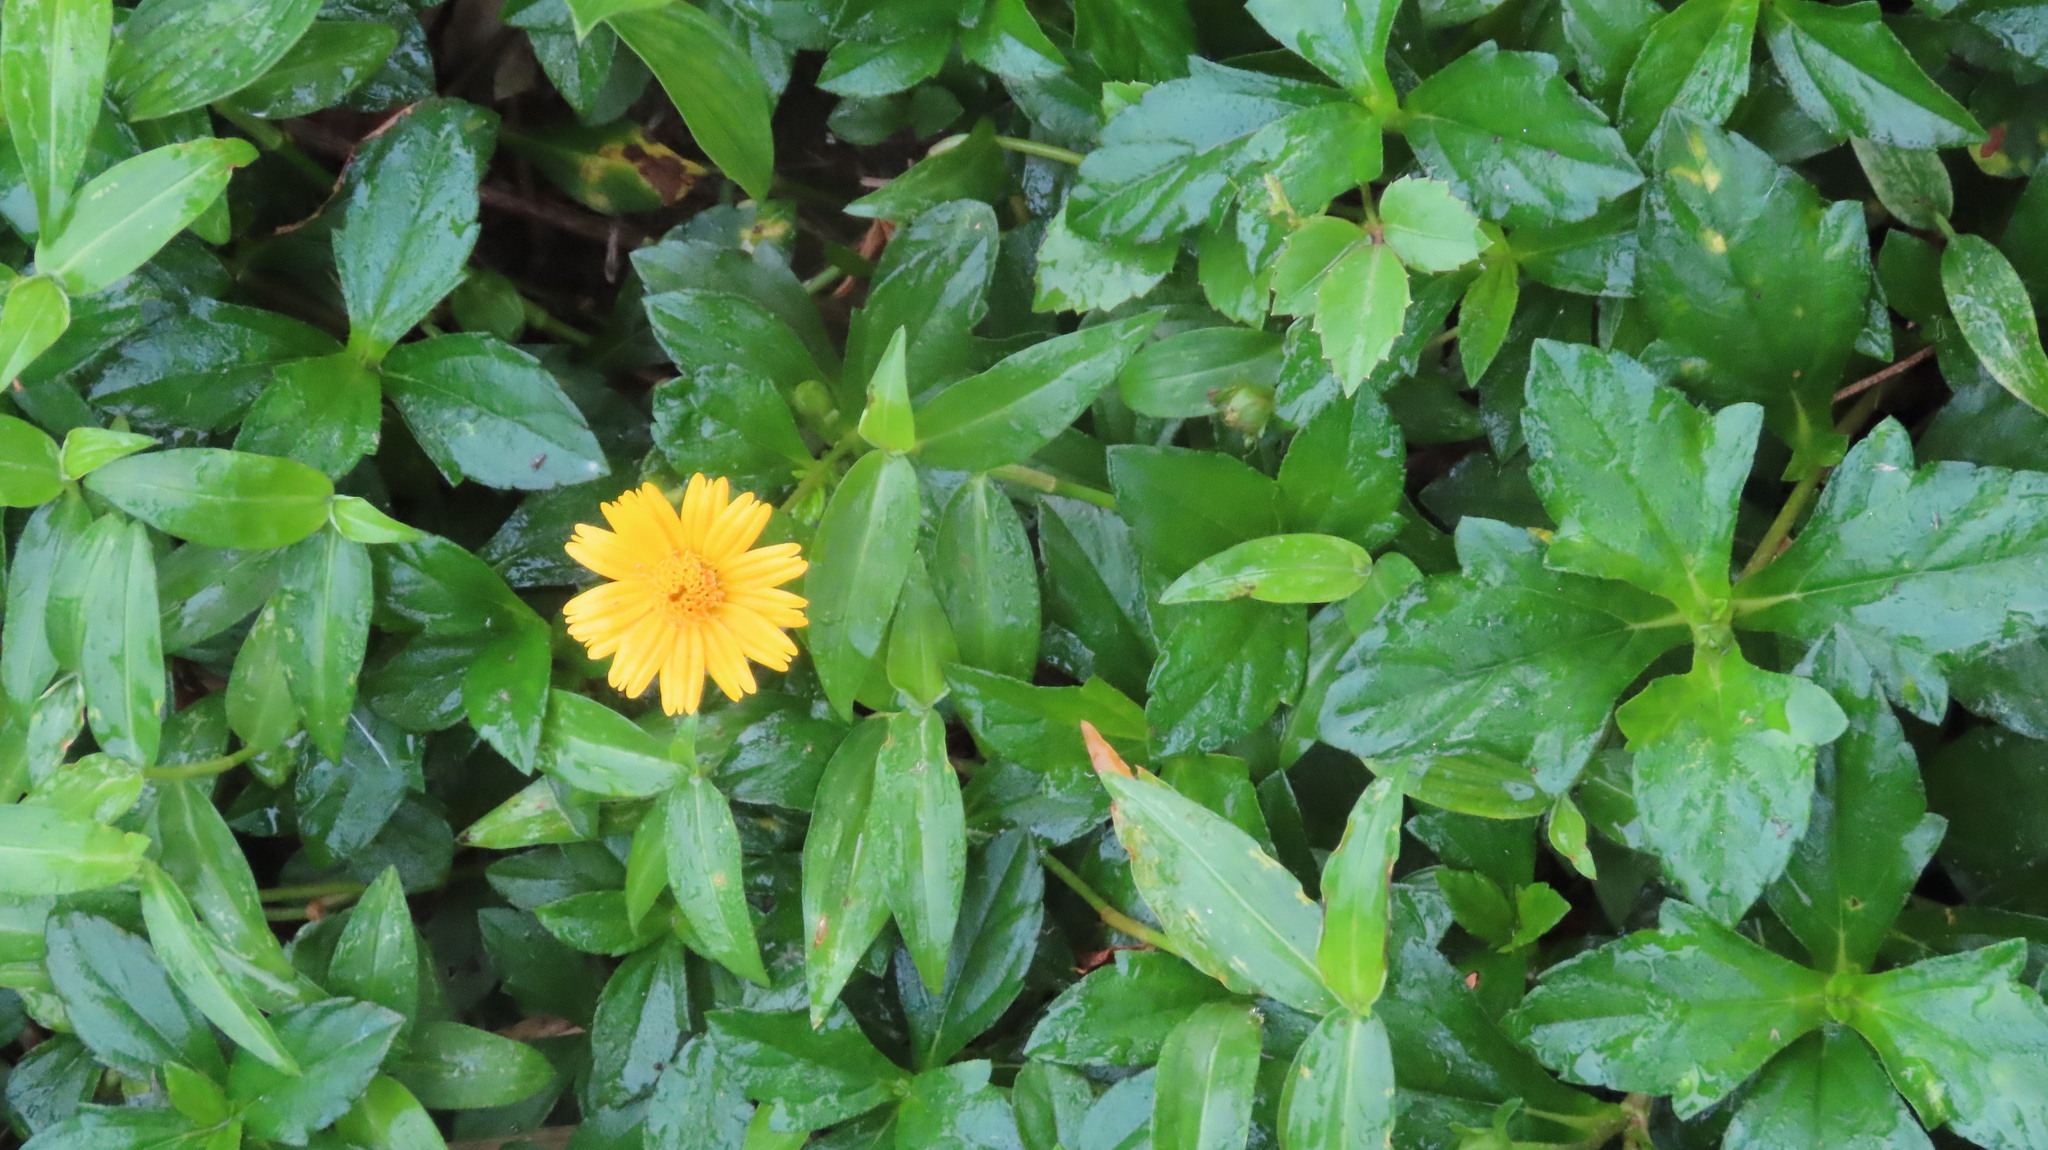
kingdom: Plantae
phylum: Tracheophyta
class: Magnoliopsida
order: Asterales
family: Asteraceae
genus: Sphagneticola
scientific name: Sphagneticola trilobata
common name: Bay biscayne creeping-oxeye
